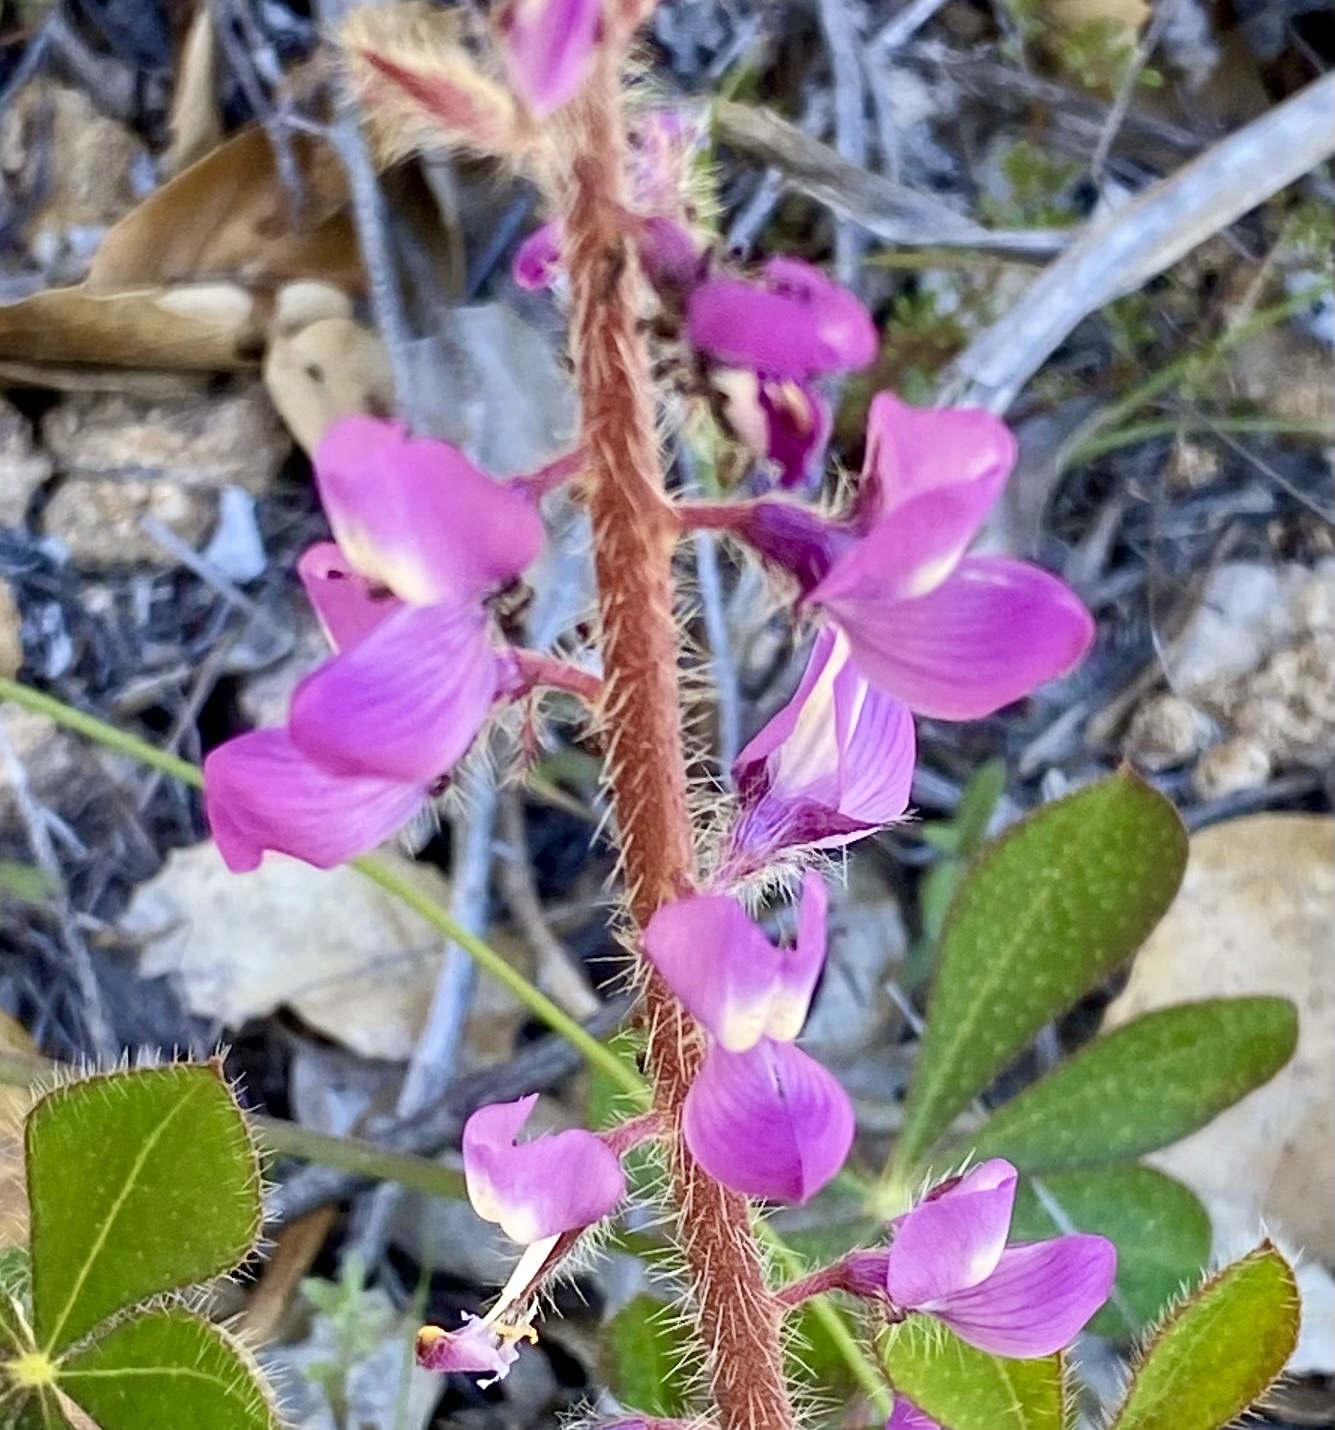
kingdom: Plantae
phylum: Tracheophyta
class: Magnoliopsida
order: Fabales
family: Fabaceae
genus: Lupinus
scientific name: Lupinus hirsutissimus
